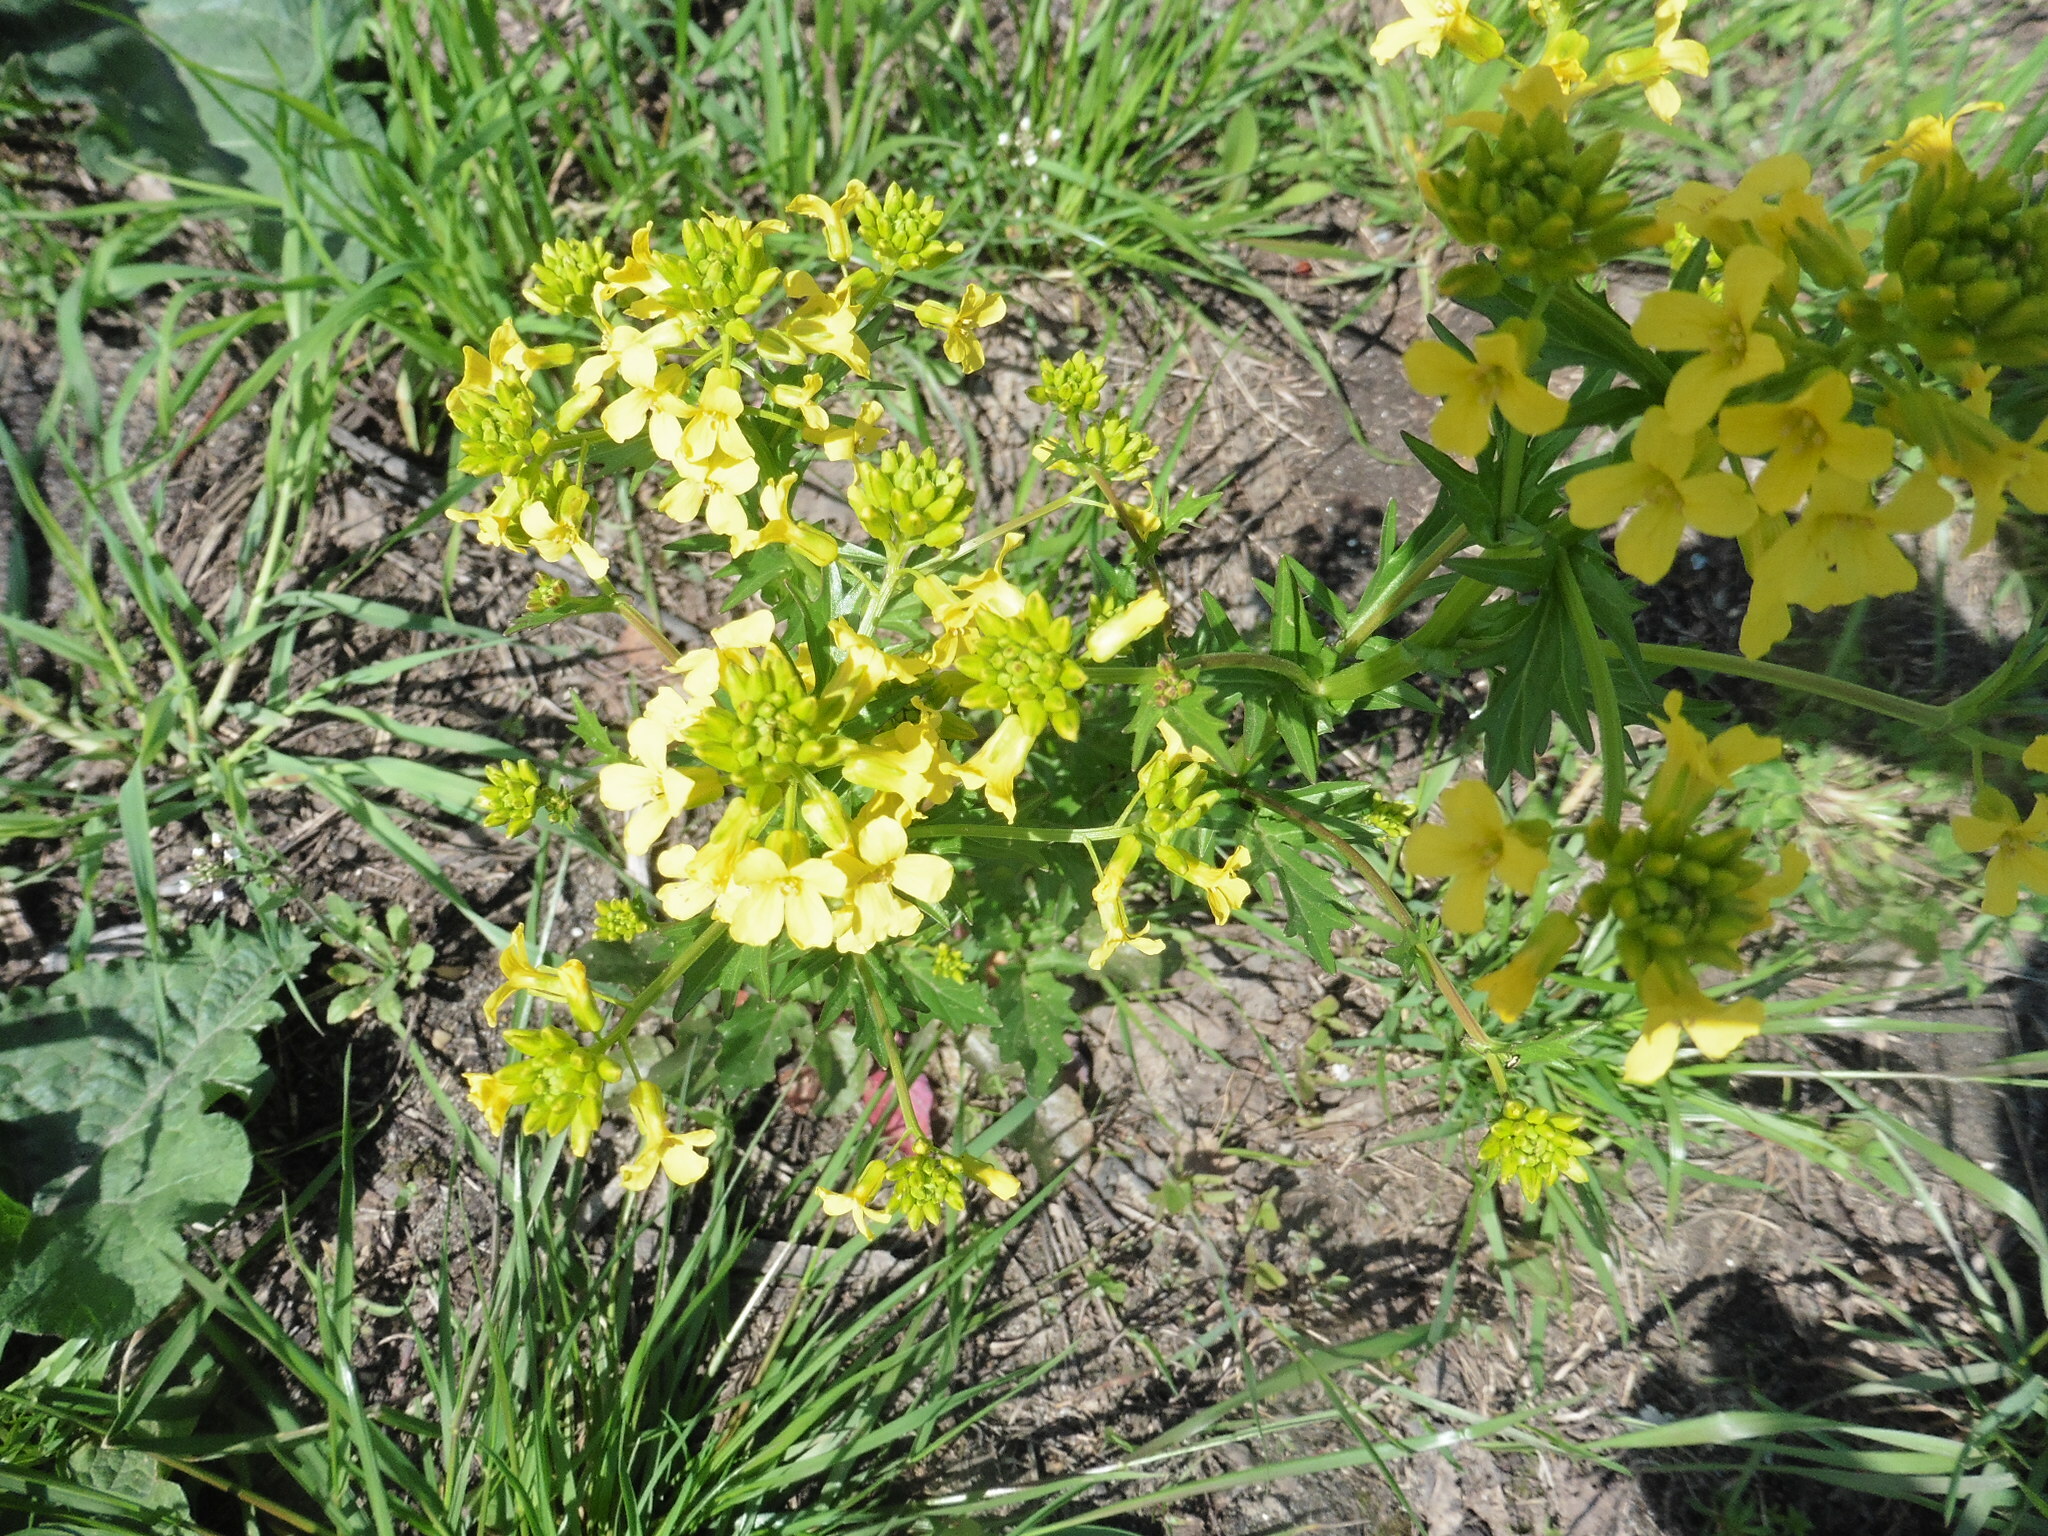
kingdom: Plantae
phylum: Tracheophyta
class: Magnoliopsida
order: Brassicales
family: Brassicaceae
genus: Barbarea
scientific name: Barbarea vulgaris
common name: Cressy-greens
